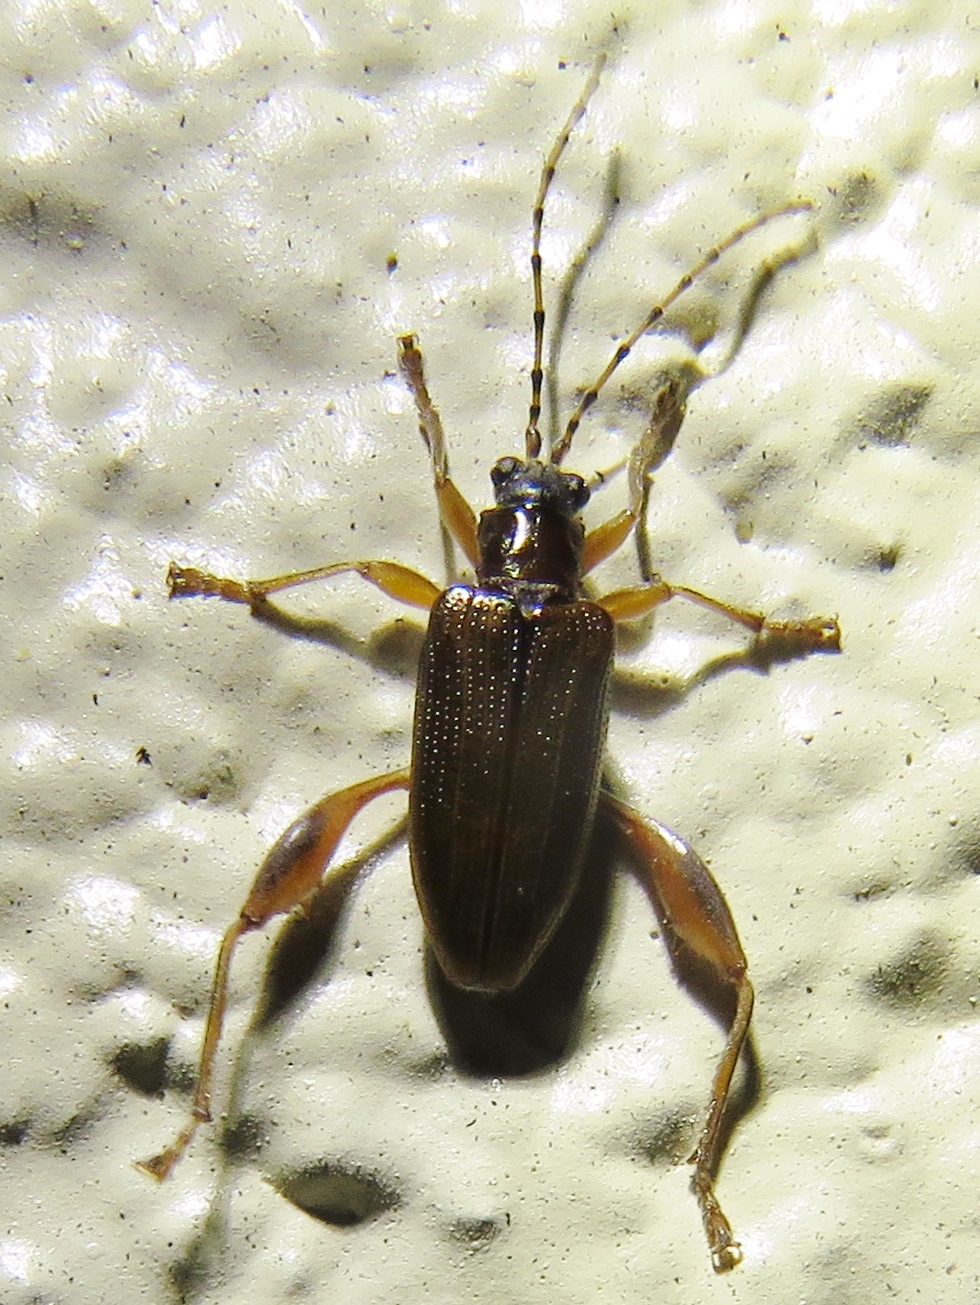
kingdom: Animalia
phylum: Arthropoda
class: Insecta
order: Coleoptera
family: Chrysomelidae
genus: Donacia
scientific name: Donacia cincticornis
